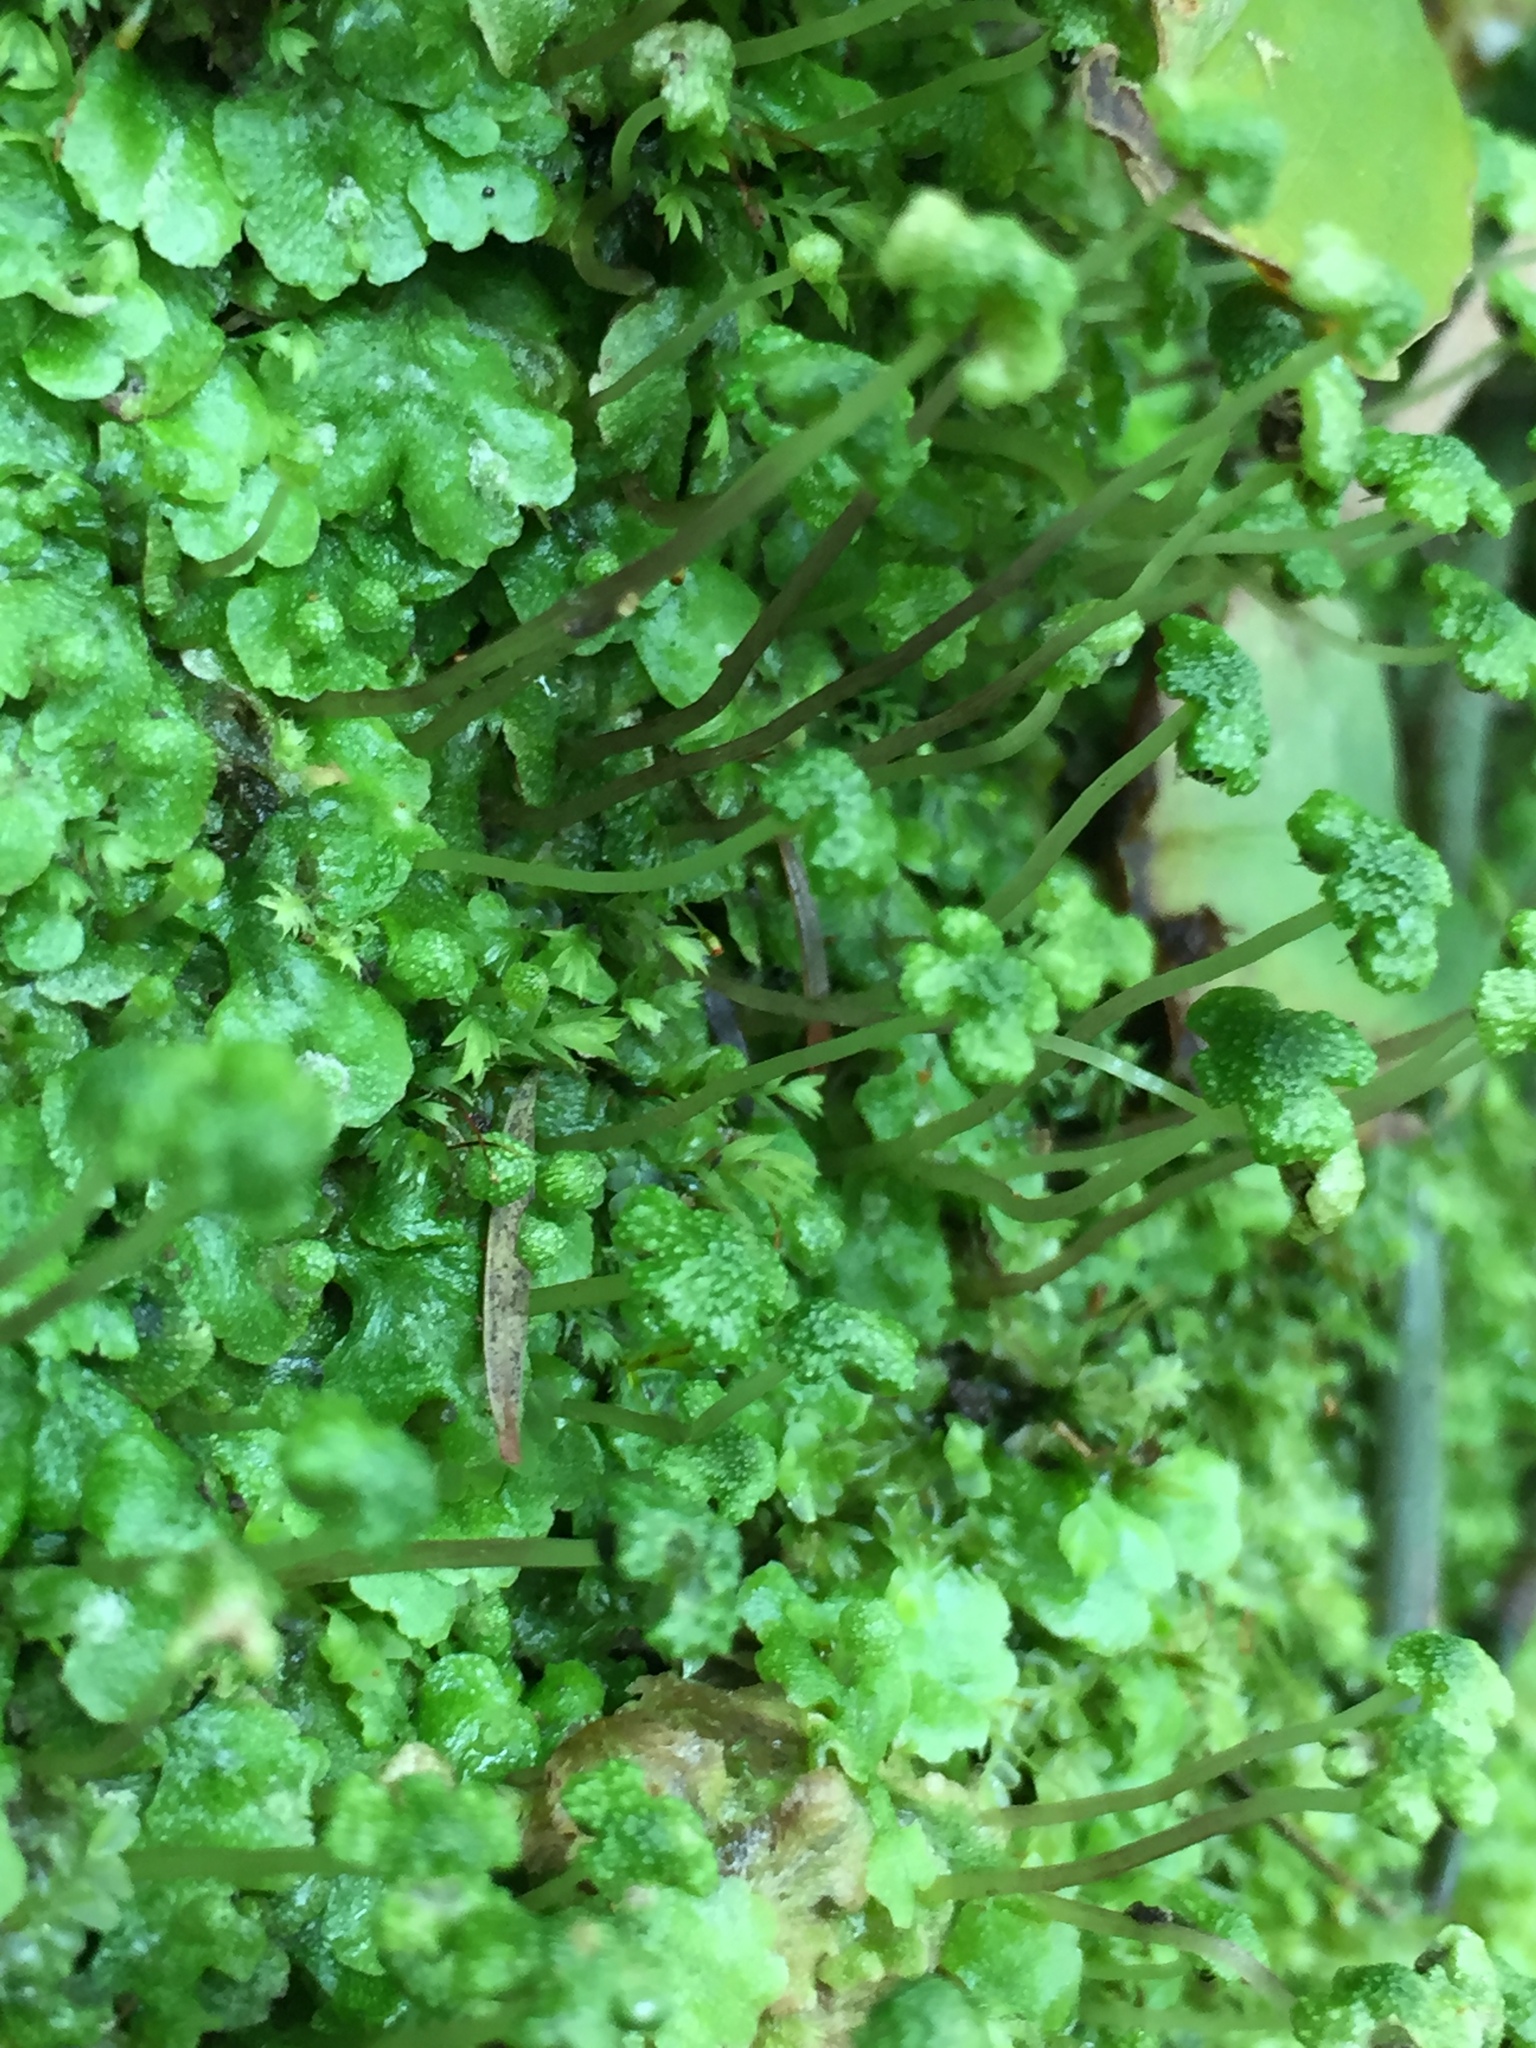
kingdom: Plantae
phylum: Marchantiophyta
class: Marchantiopsida
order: Marchantiales
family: Aytoniaceae
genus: Asterella
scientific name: Asterella australis
